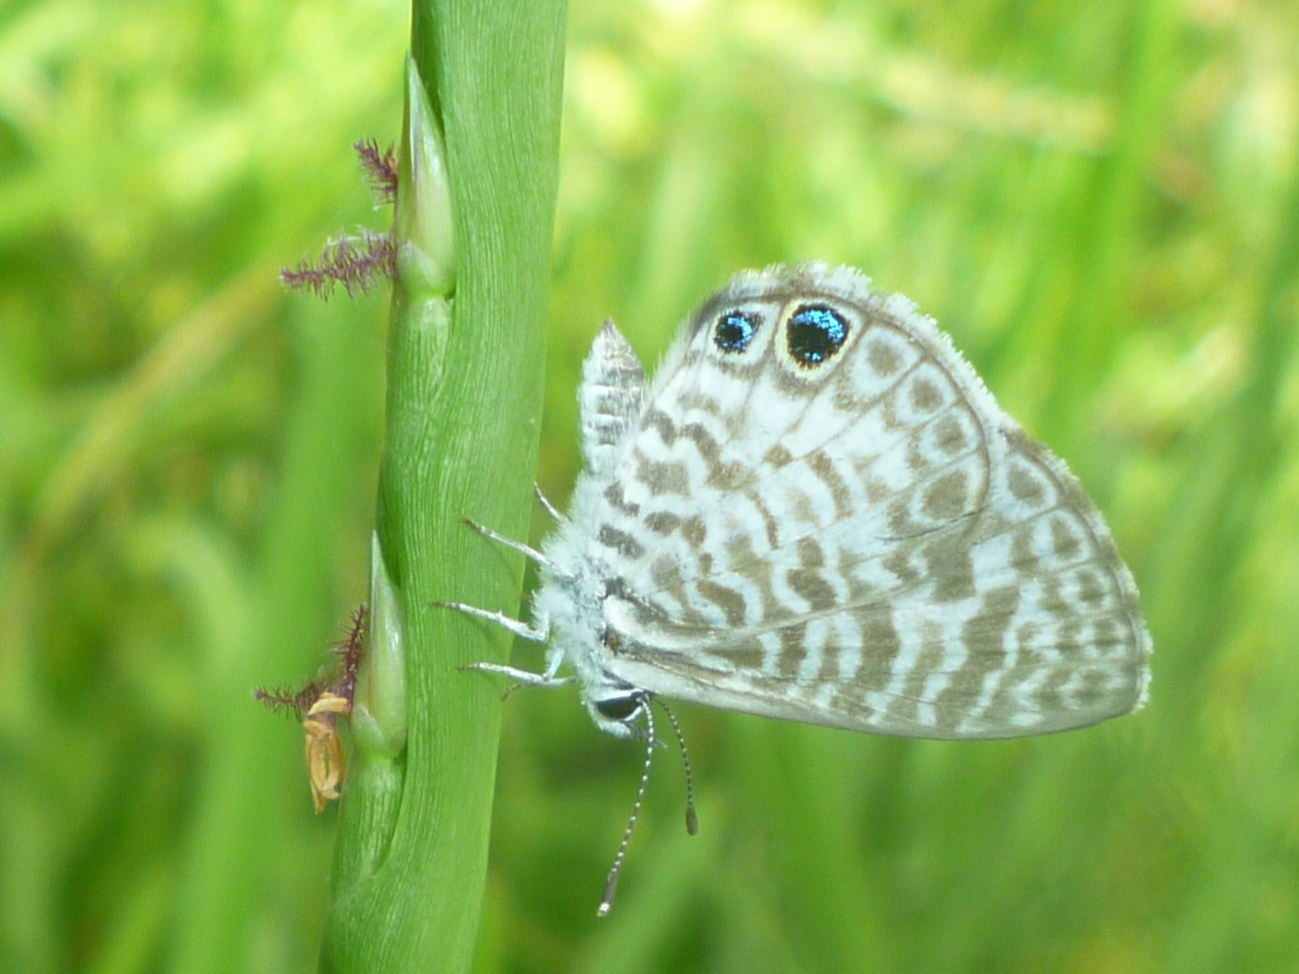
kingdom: Animalia
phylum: Arthropoda
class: Insecta
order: Lepidoptera
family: Lycaenidae
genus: Leptotes
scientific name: Leptotes cassius
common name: Cassius blue
